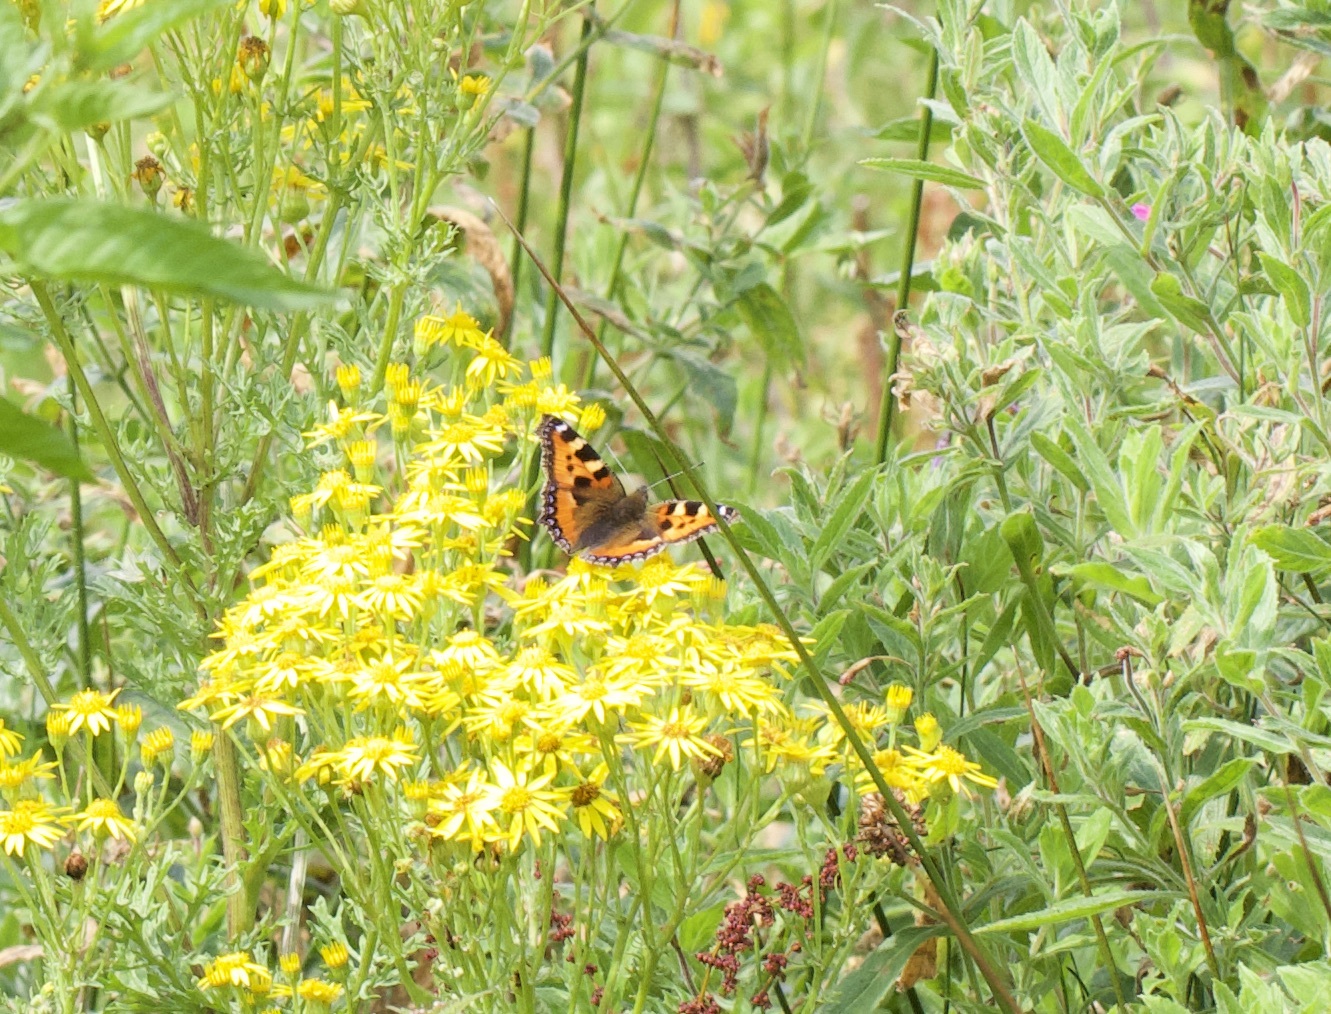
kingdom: Animalia
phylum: Arthropoda
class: Insecta
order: Lepidoptera
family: Nymphalidae
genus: Aglais
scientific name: Aglais urticae
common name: Small tortoiseshell
